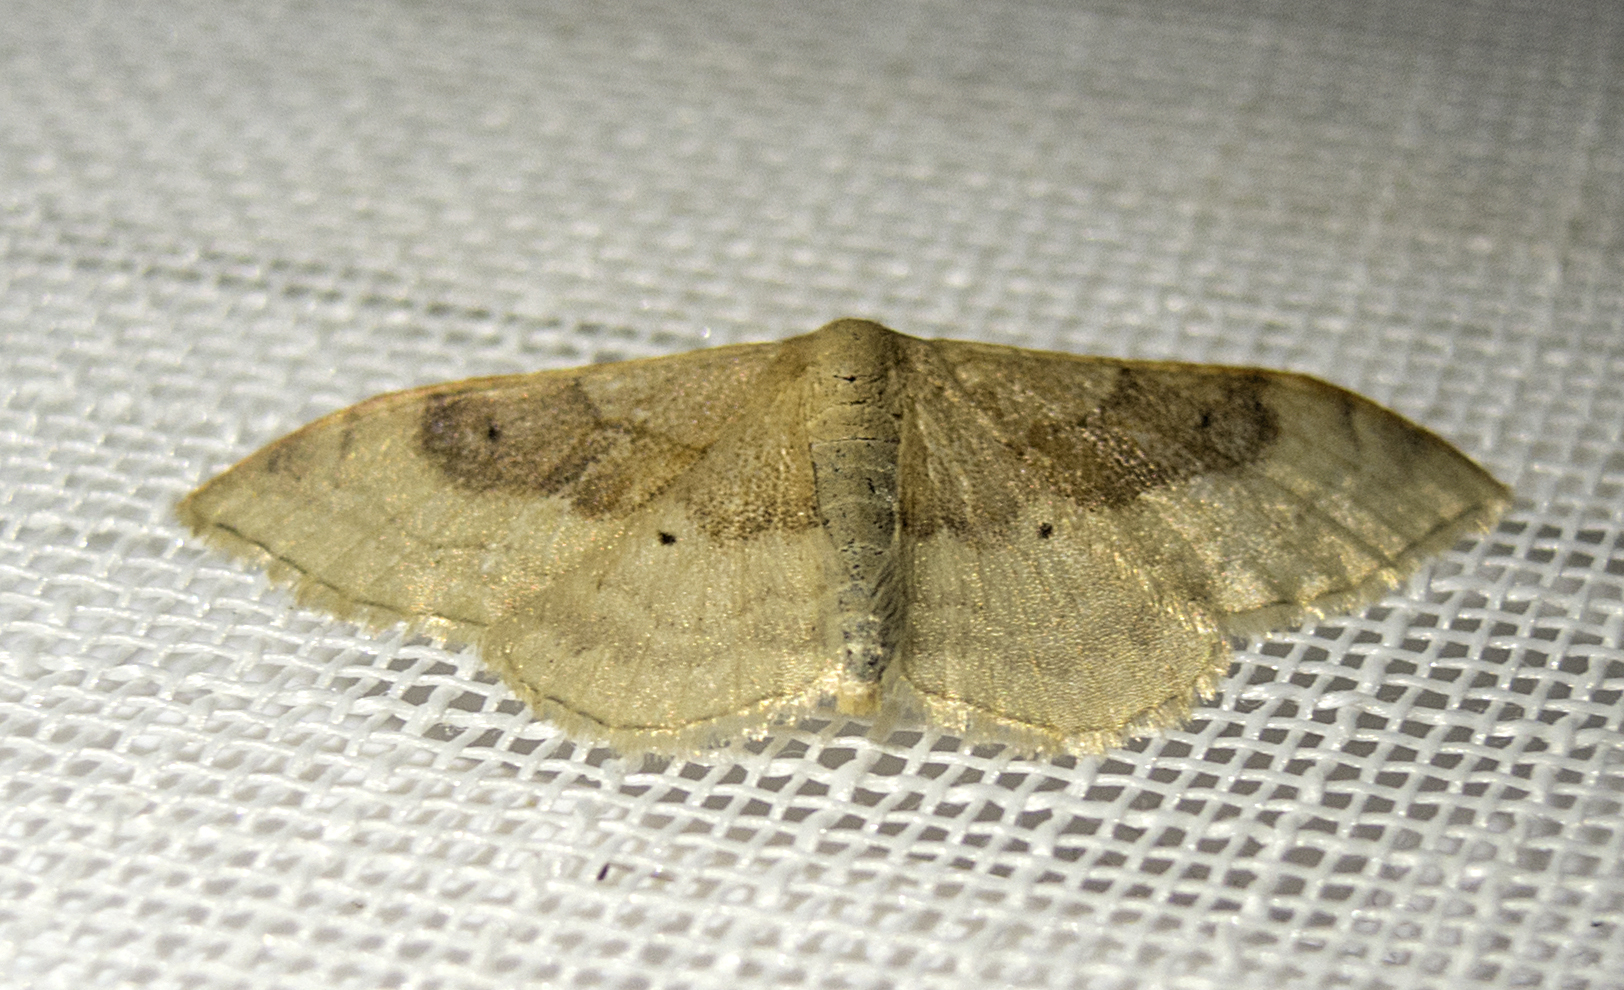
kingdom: Animalia
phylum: Arthropoda
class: Insecta
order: Lepidoptera
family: Geometridae
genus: Idaea
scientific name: Idaea degeneraria
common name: Portland ribbon wave
